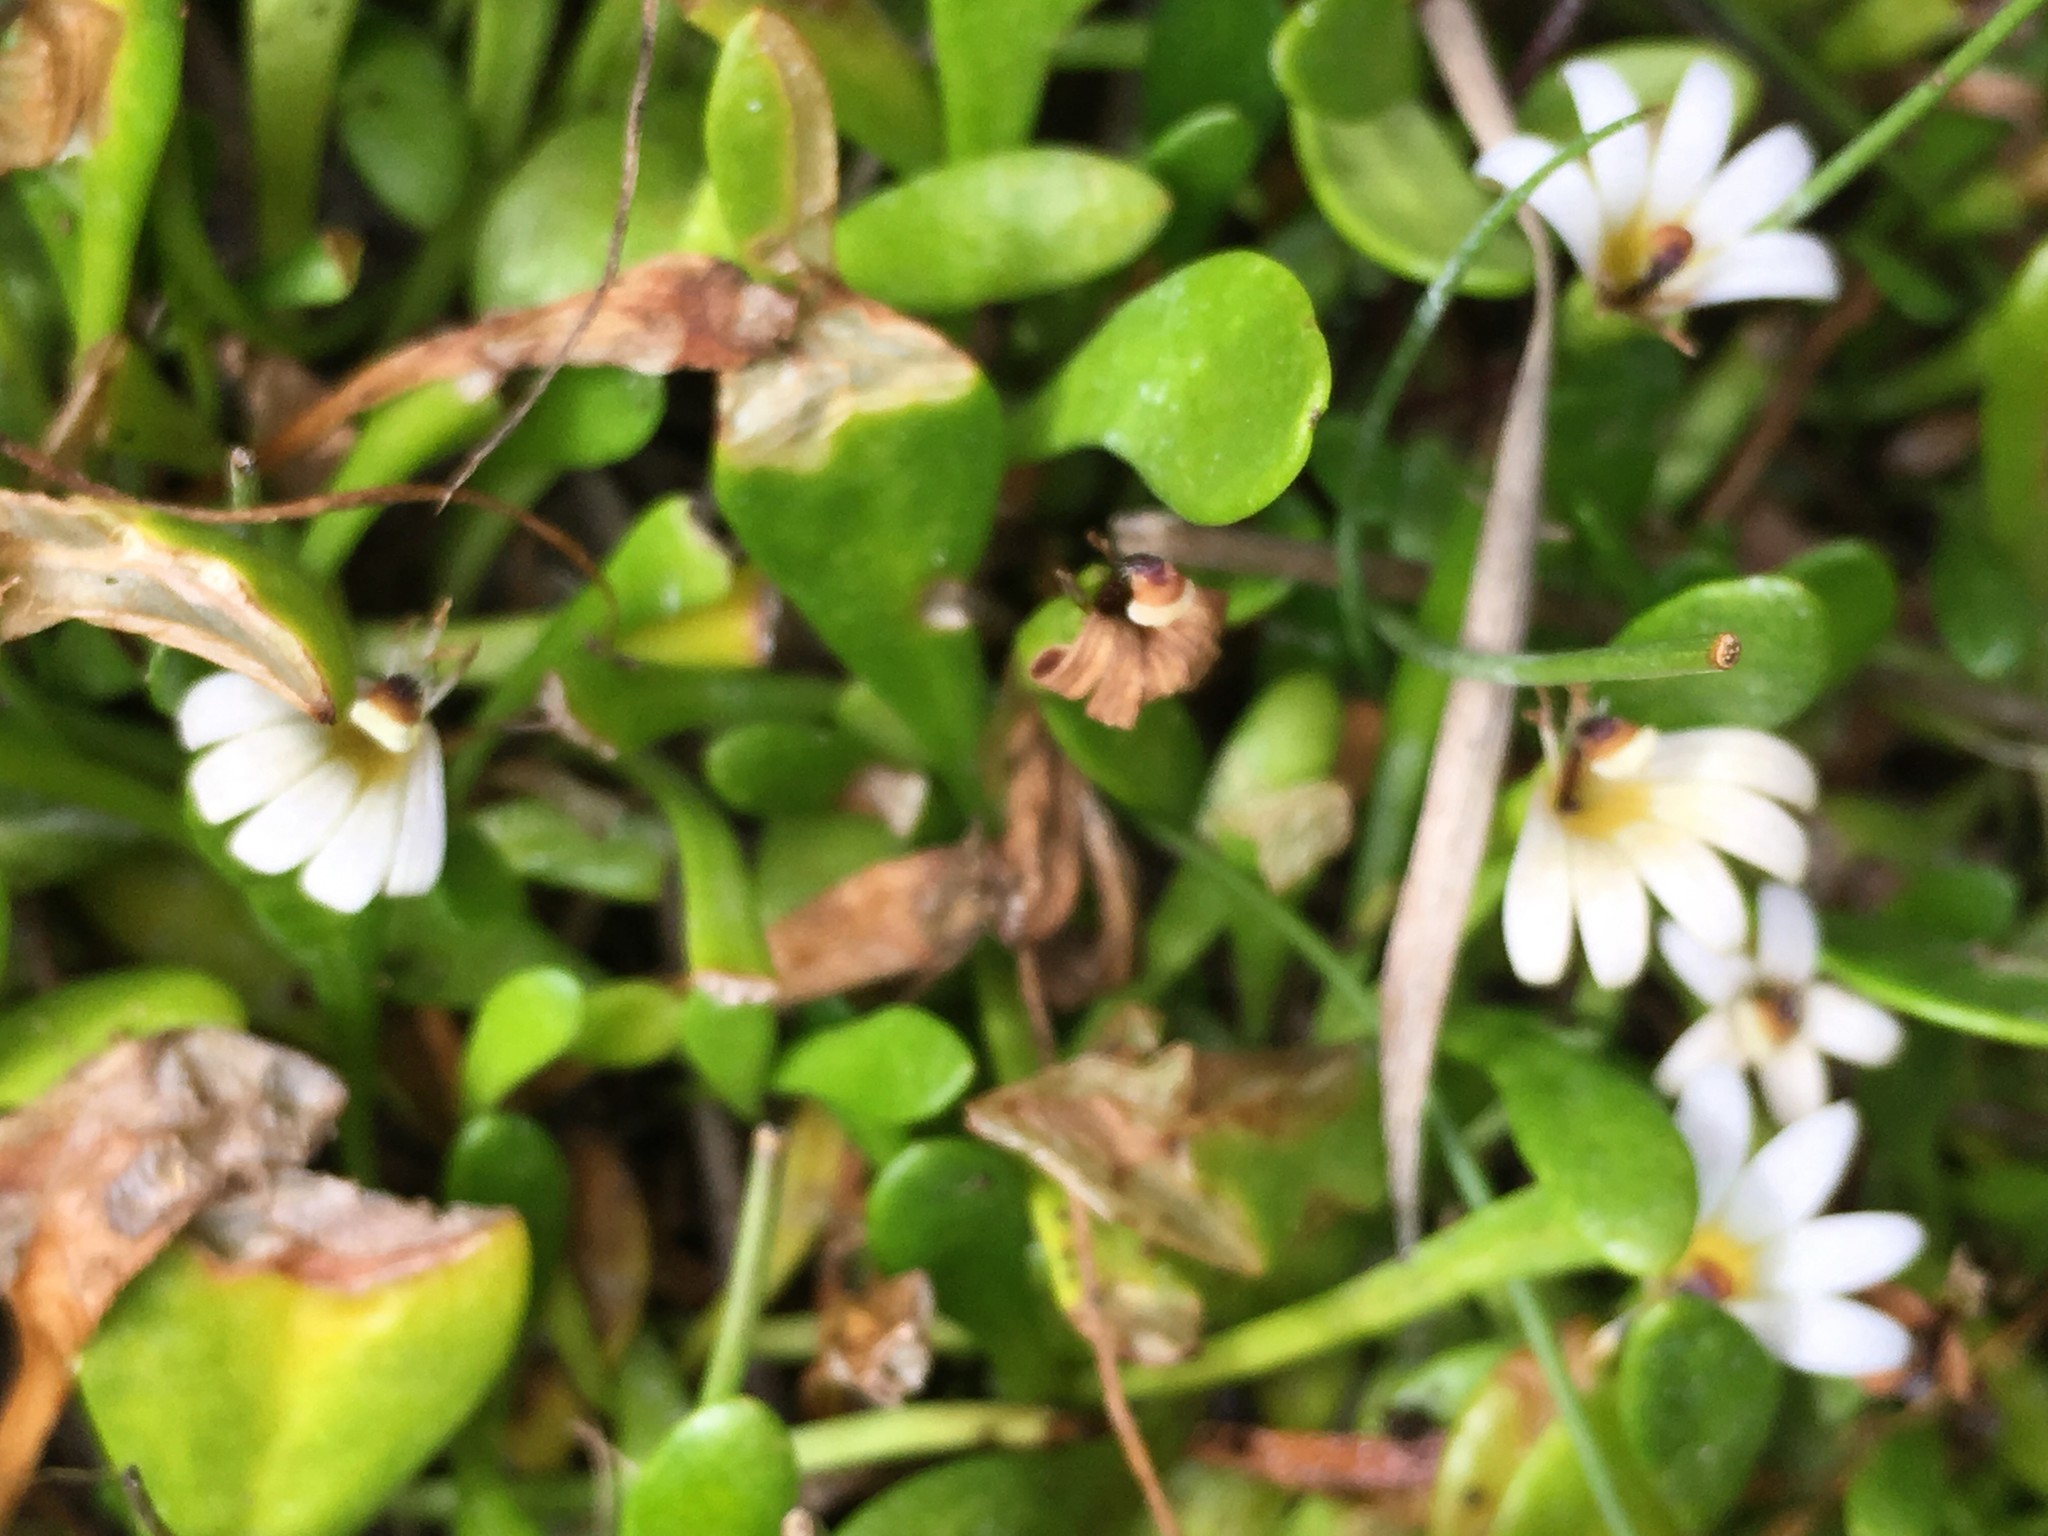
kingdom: Plantae
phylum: Tracheophyta
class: Magnoliopsida
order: Asterales
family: Goodeniaceae
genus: Goodenia
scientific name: Goodenia radicans
